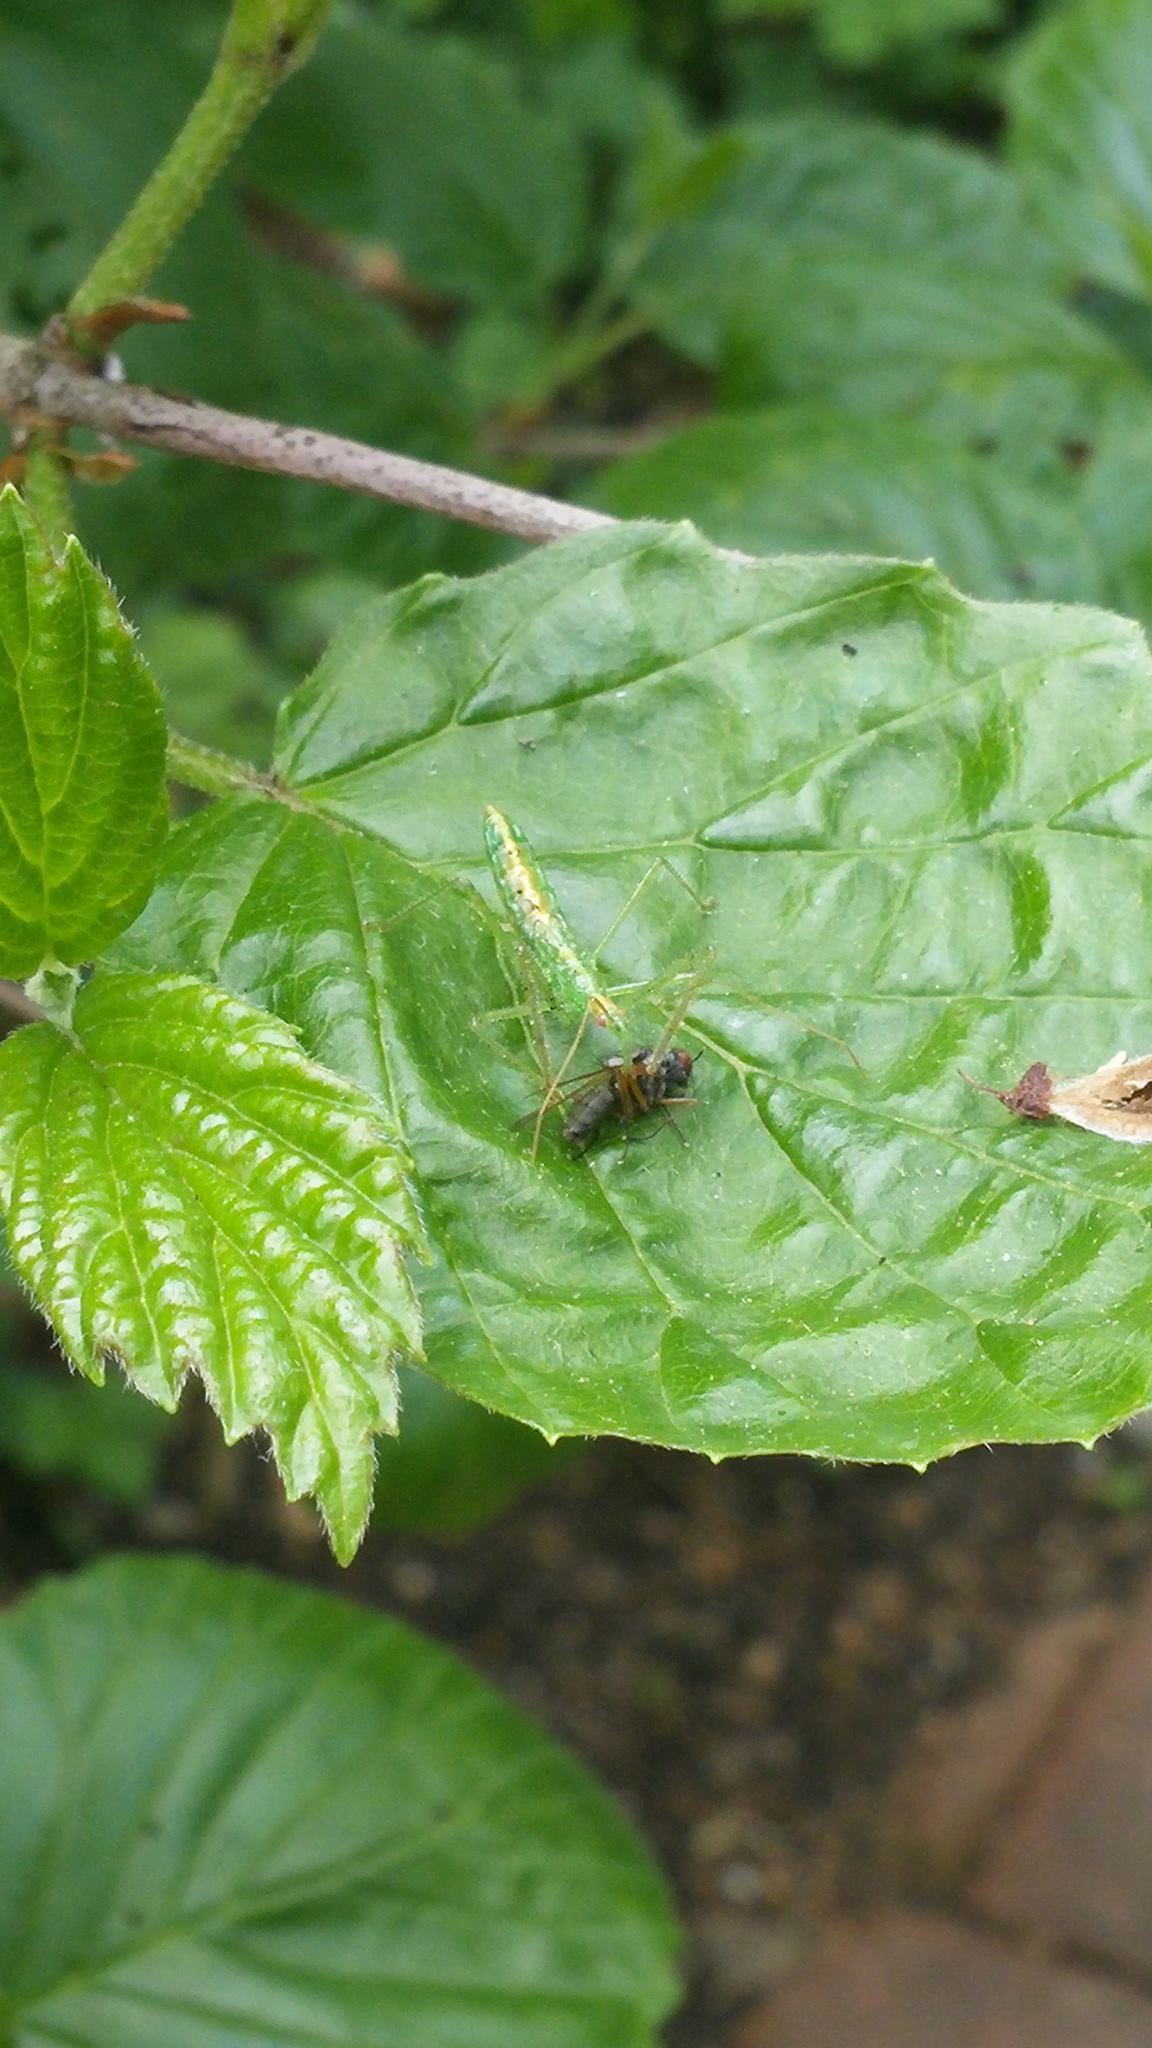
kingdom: Animalia
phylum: Arthropoda
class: Insecta
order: Hemiptera
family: Reduviidae
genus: Zelus
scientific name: Zelus luridus
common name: Pale green assassin bug
